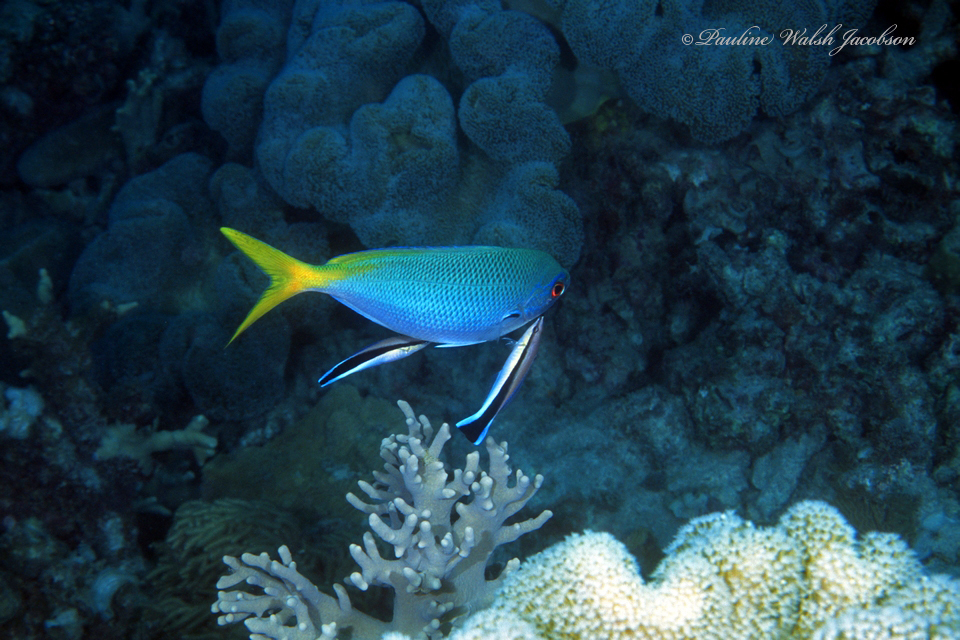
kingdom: Animalia
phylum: Chordata
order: Perciformes
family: Caesionidae
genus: Caesio
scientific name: Caesio cuning
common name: Red-bellied fusilier
